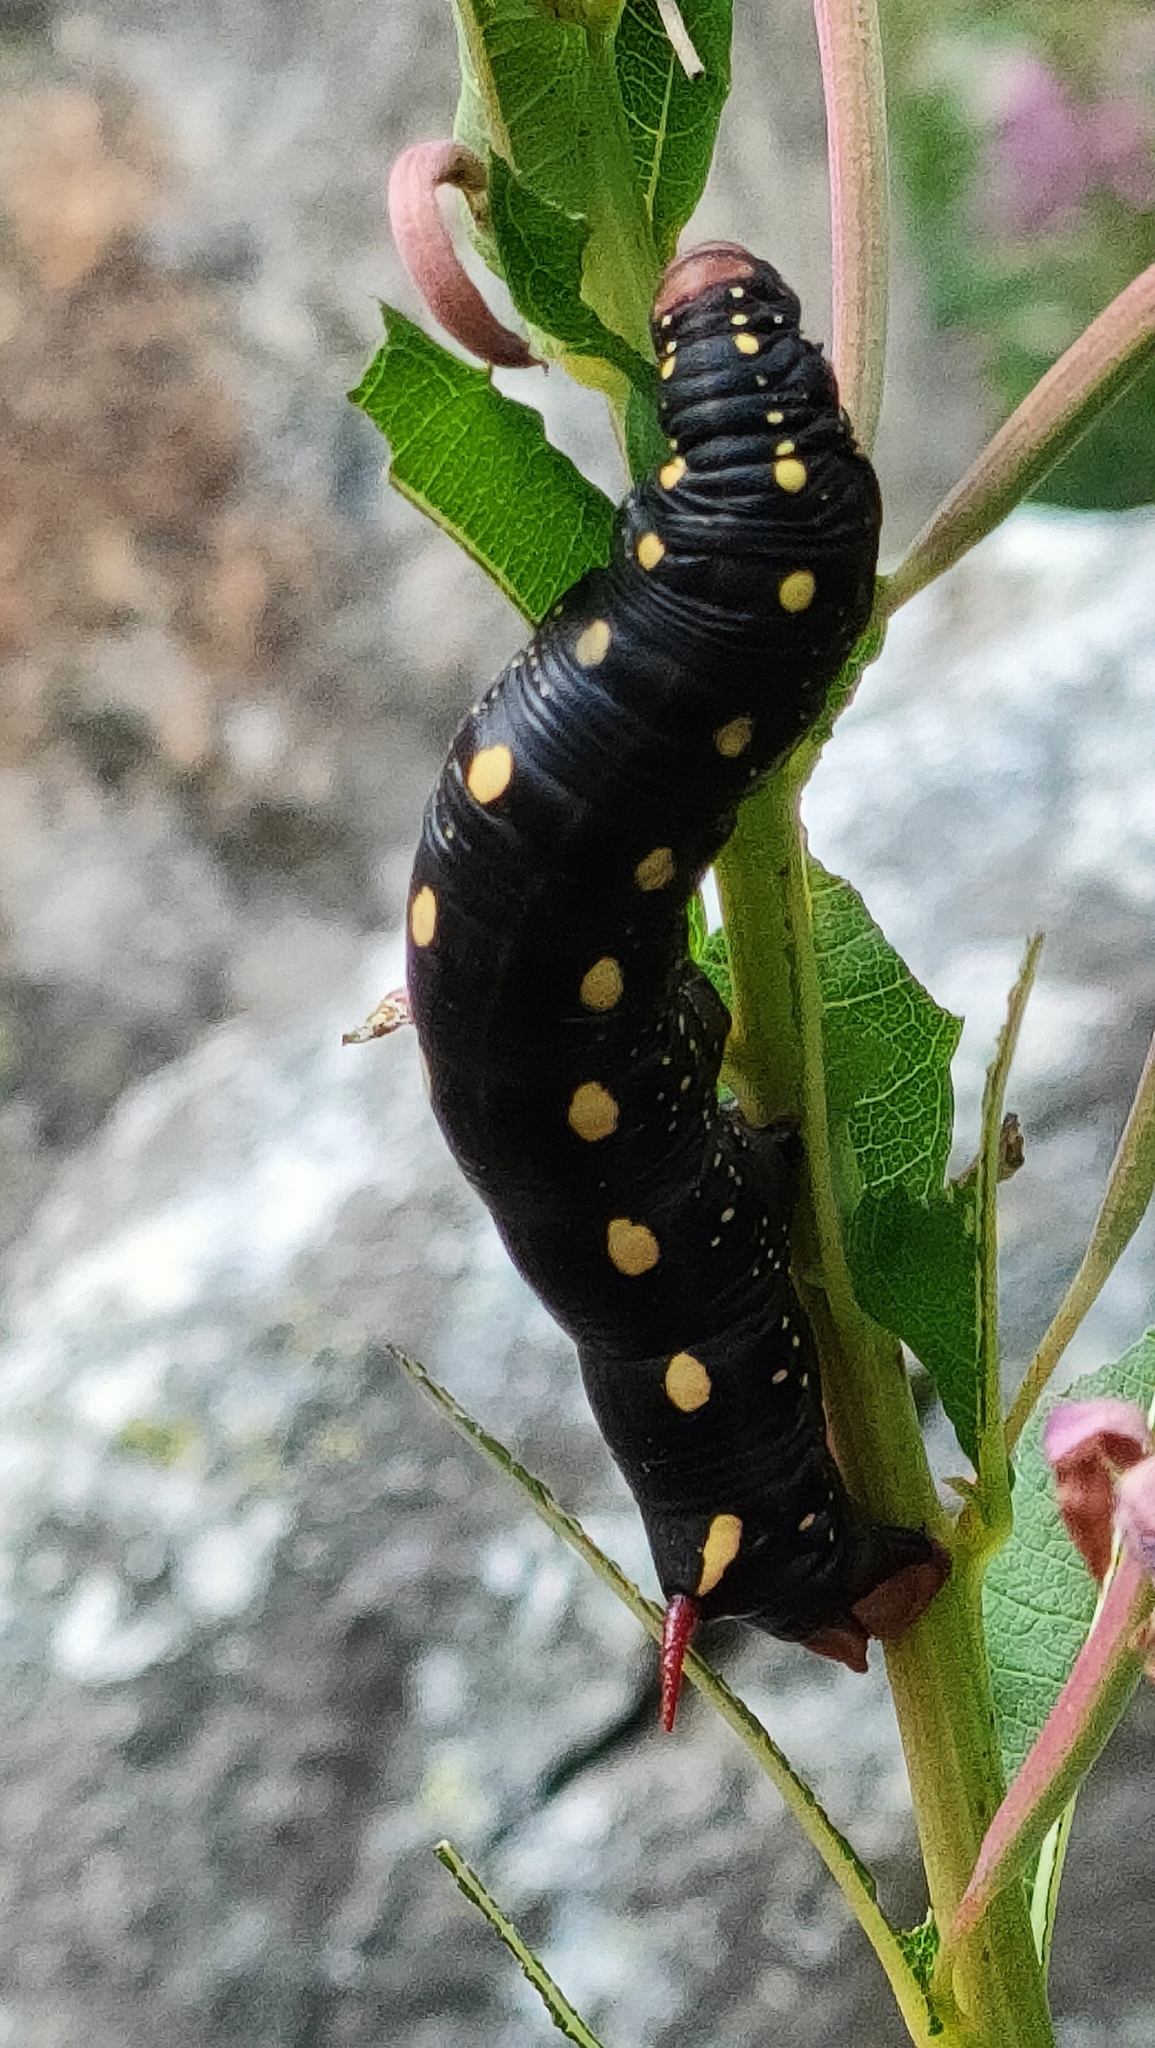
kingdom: Animalia
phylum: Arthropoda
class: Insecta
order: Lepidoptera
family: Sphingidae
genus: Hyles
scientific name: Hyles gallii
